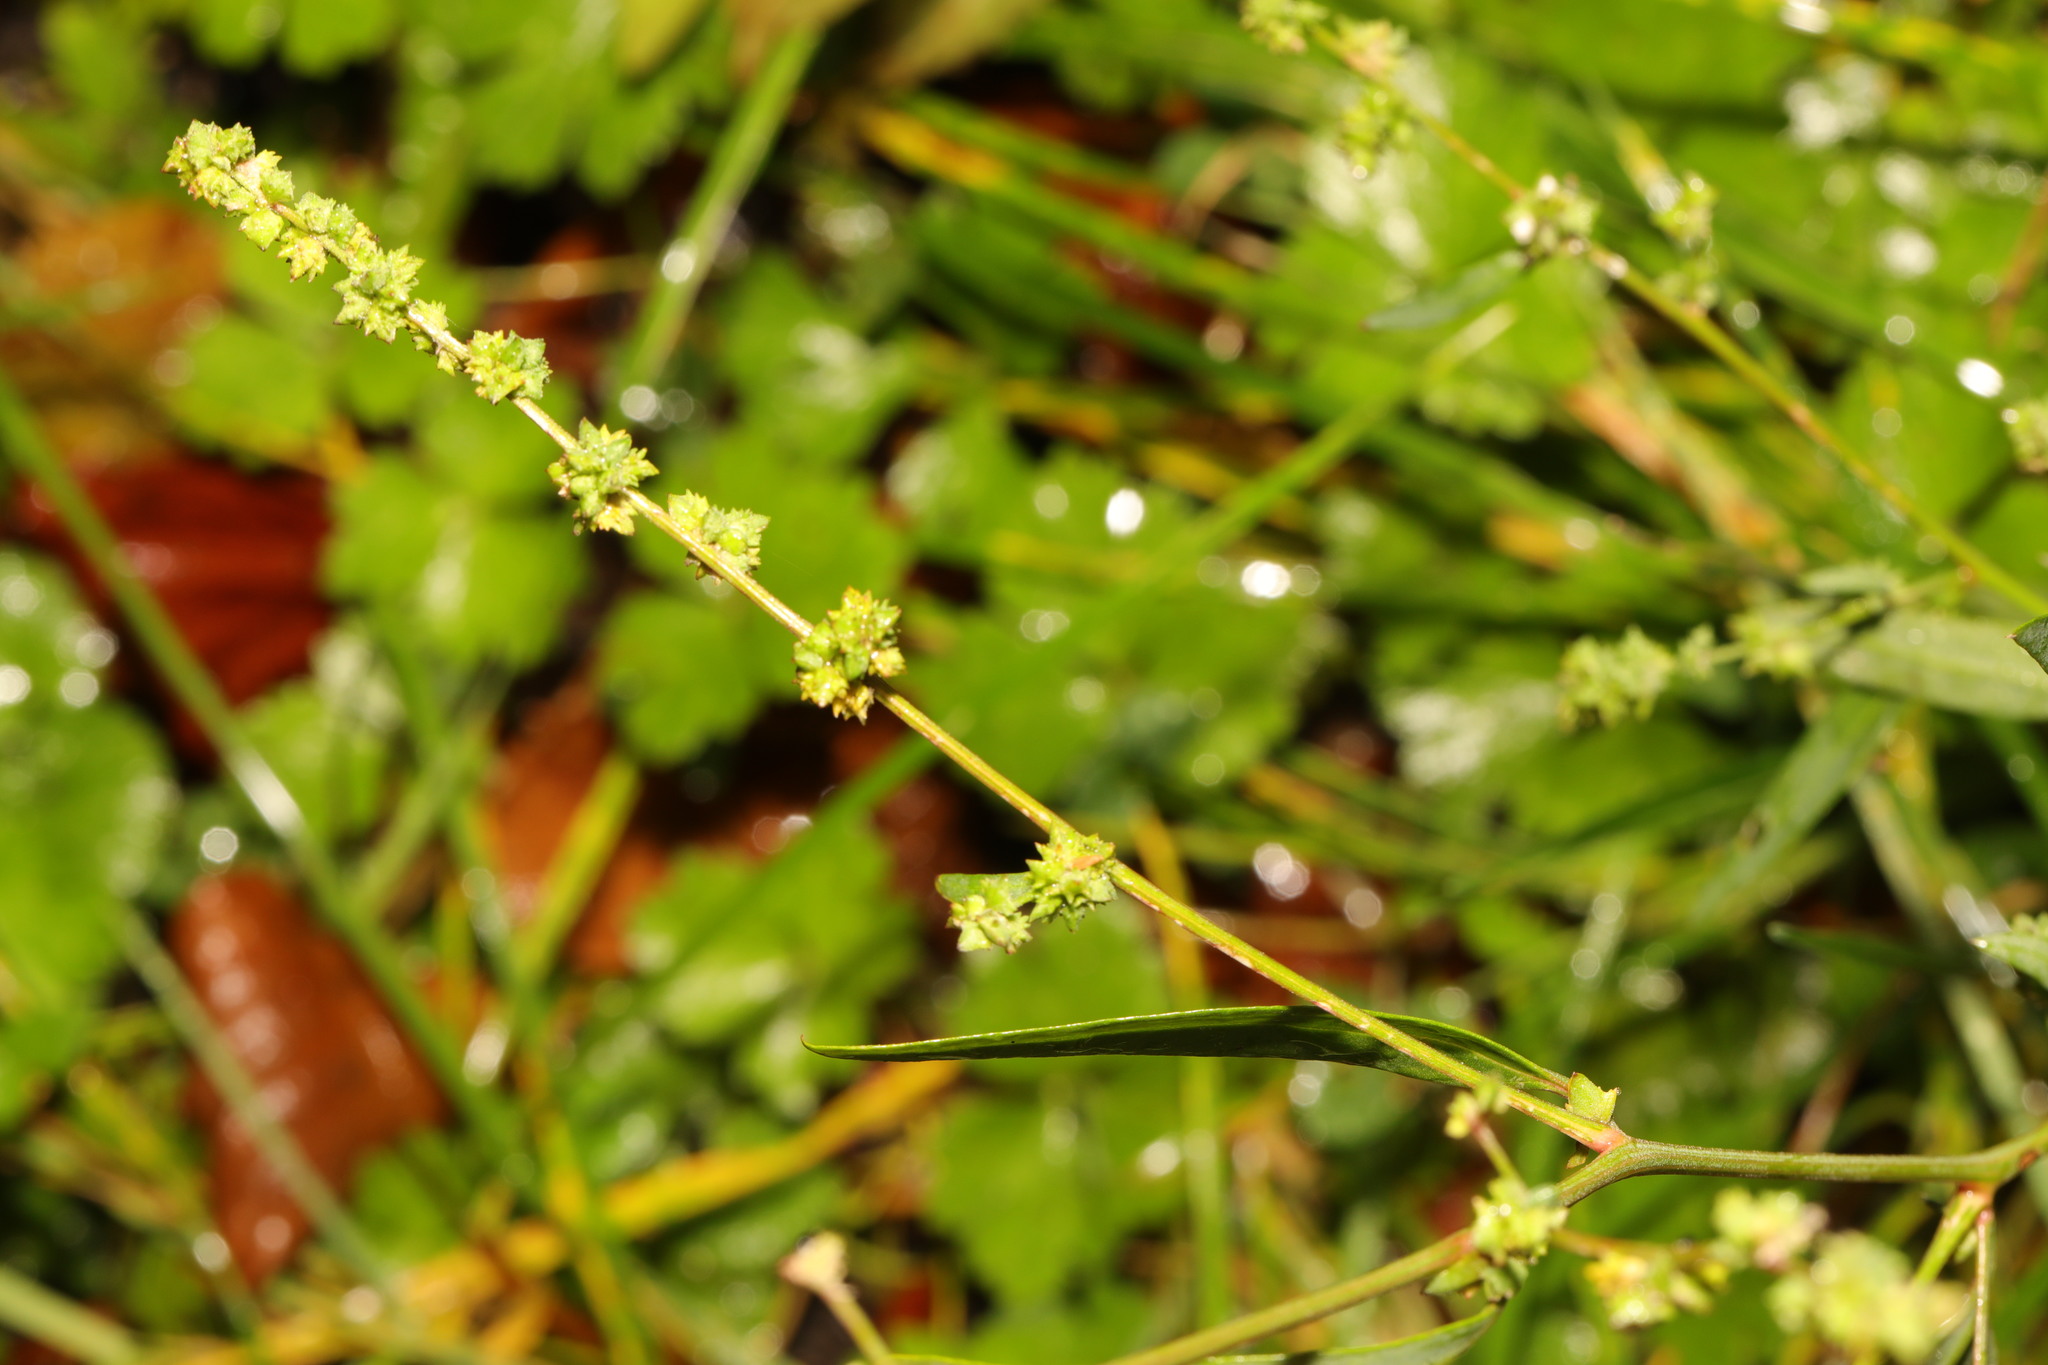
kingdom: Plantae
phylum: Tracheophyta
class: Magnoliopsida
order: Caryophyllales
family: Amaranthaceae
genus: Atriplex
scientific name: Atriplex patula
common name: Common orache
